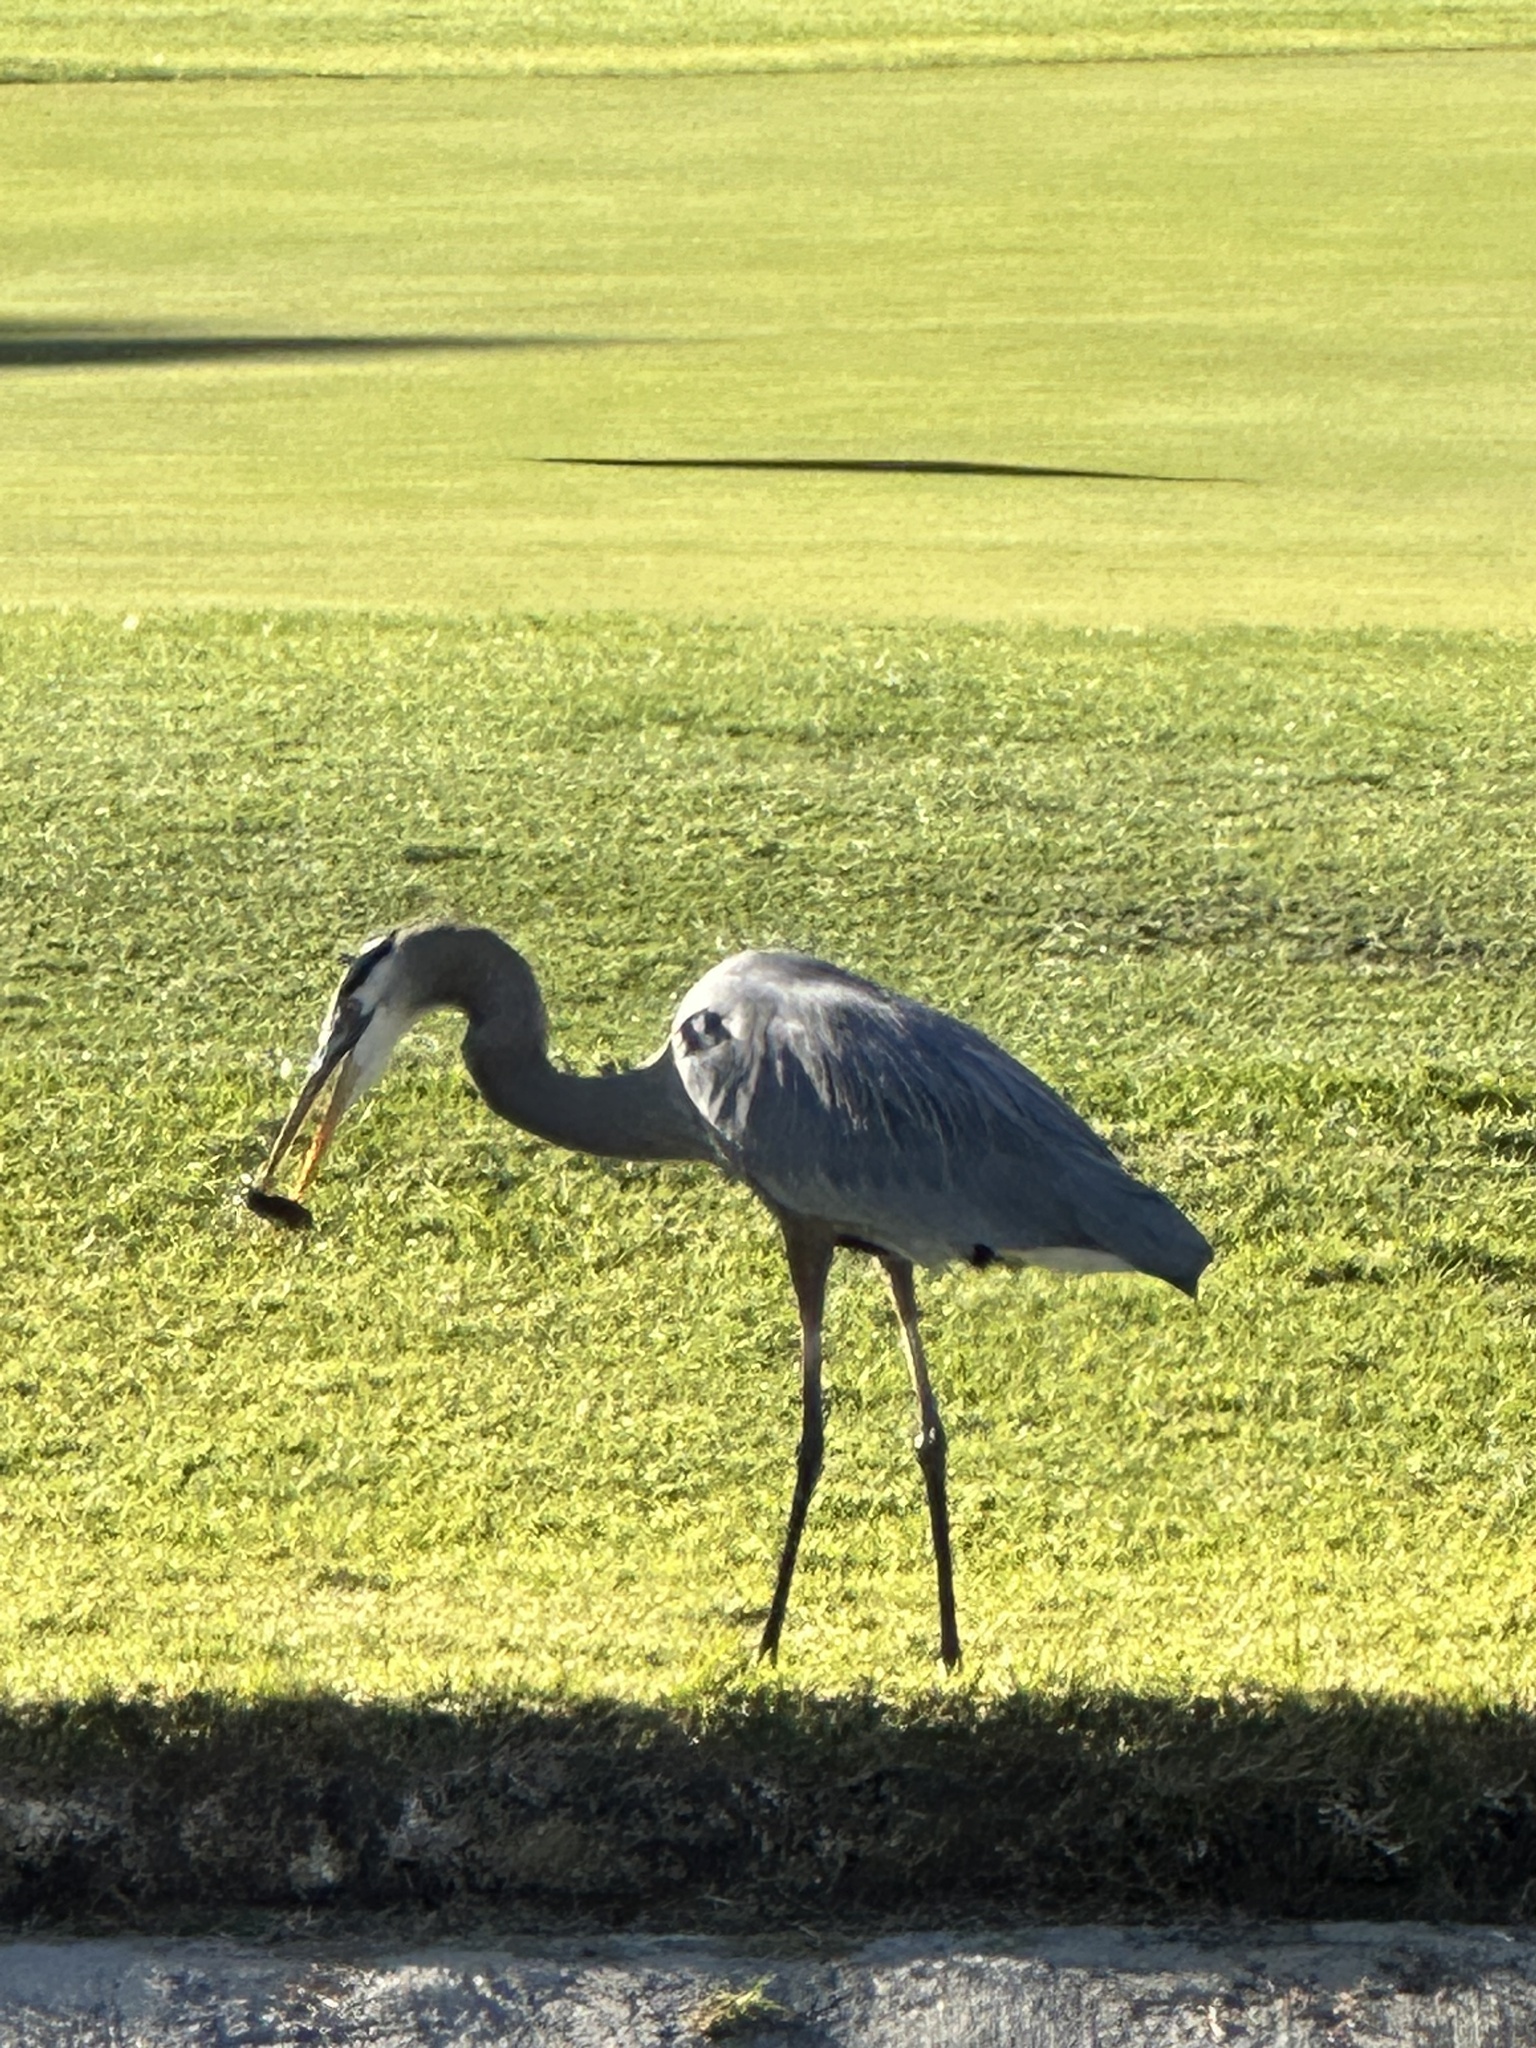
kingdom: Animalia
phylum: Chordata
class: Aves
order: Pelecaniformes
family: Ardeidae
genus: Ardea
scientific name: Ardea herodias
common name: Great blue heron
